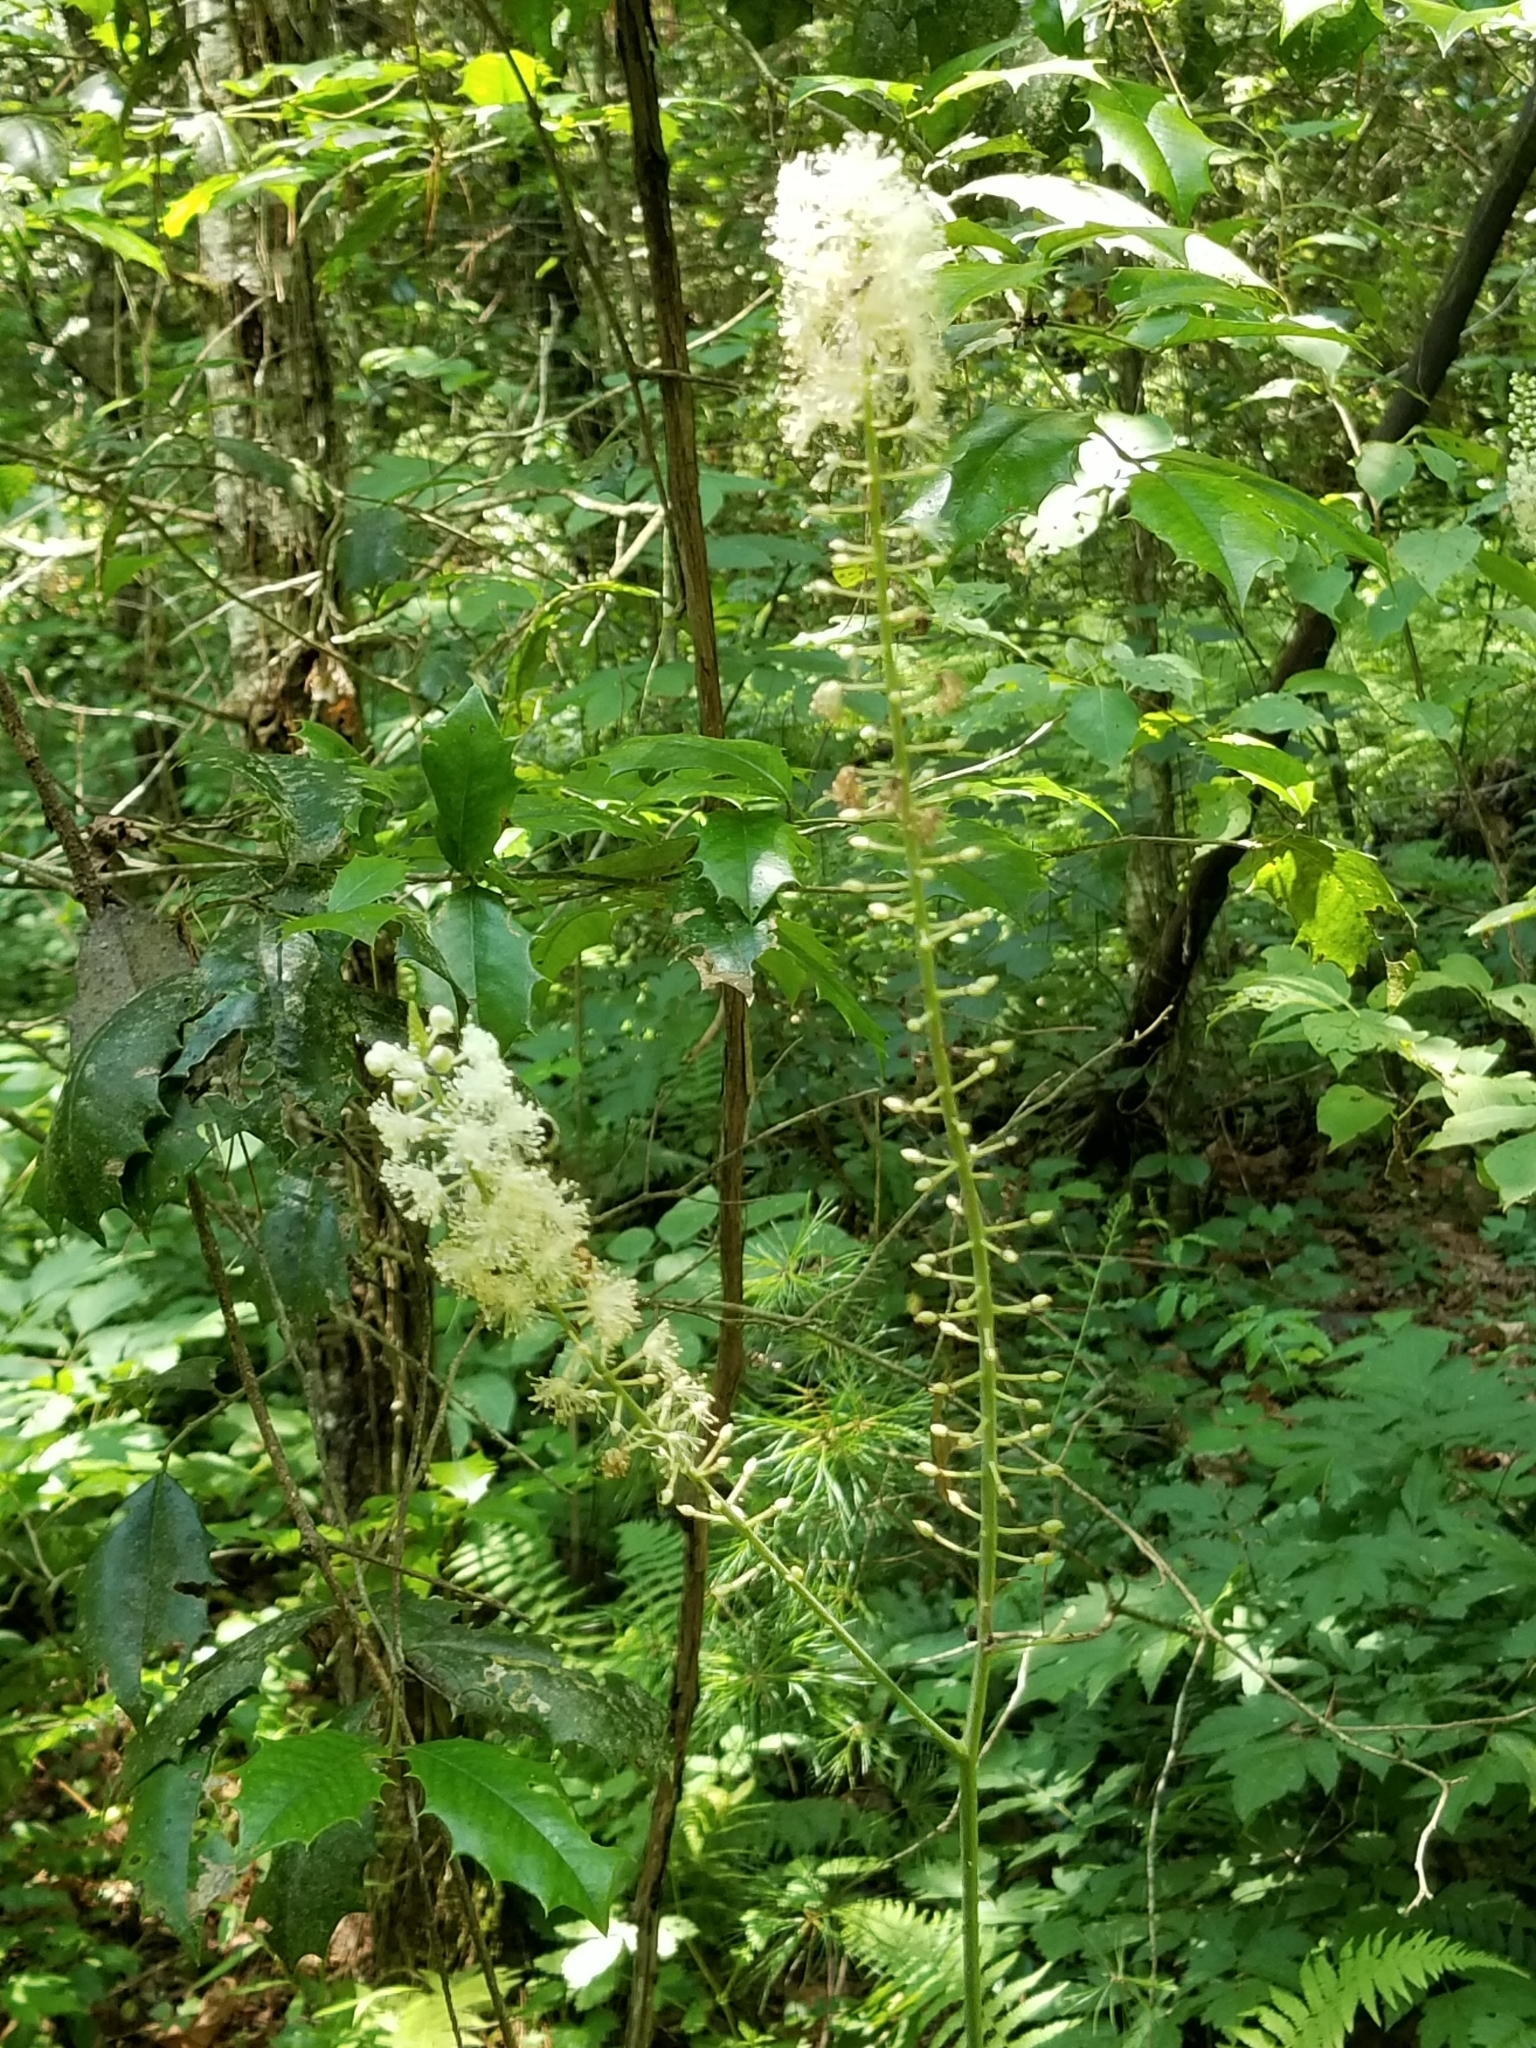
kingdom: Plantae
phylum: Tracheophyta
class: Magnoliopsida
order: Ranunculales
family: Ranunculaceae
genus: Actaea
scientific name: Actaea racemosa
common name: Black cohosh
